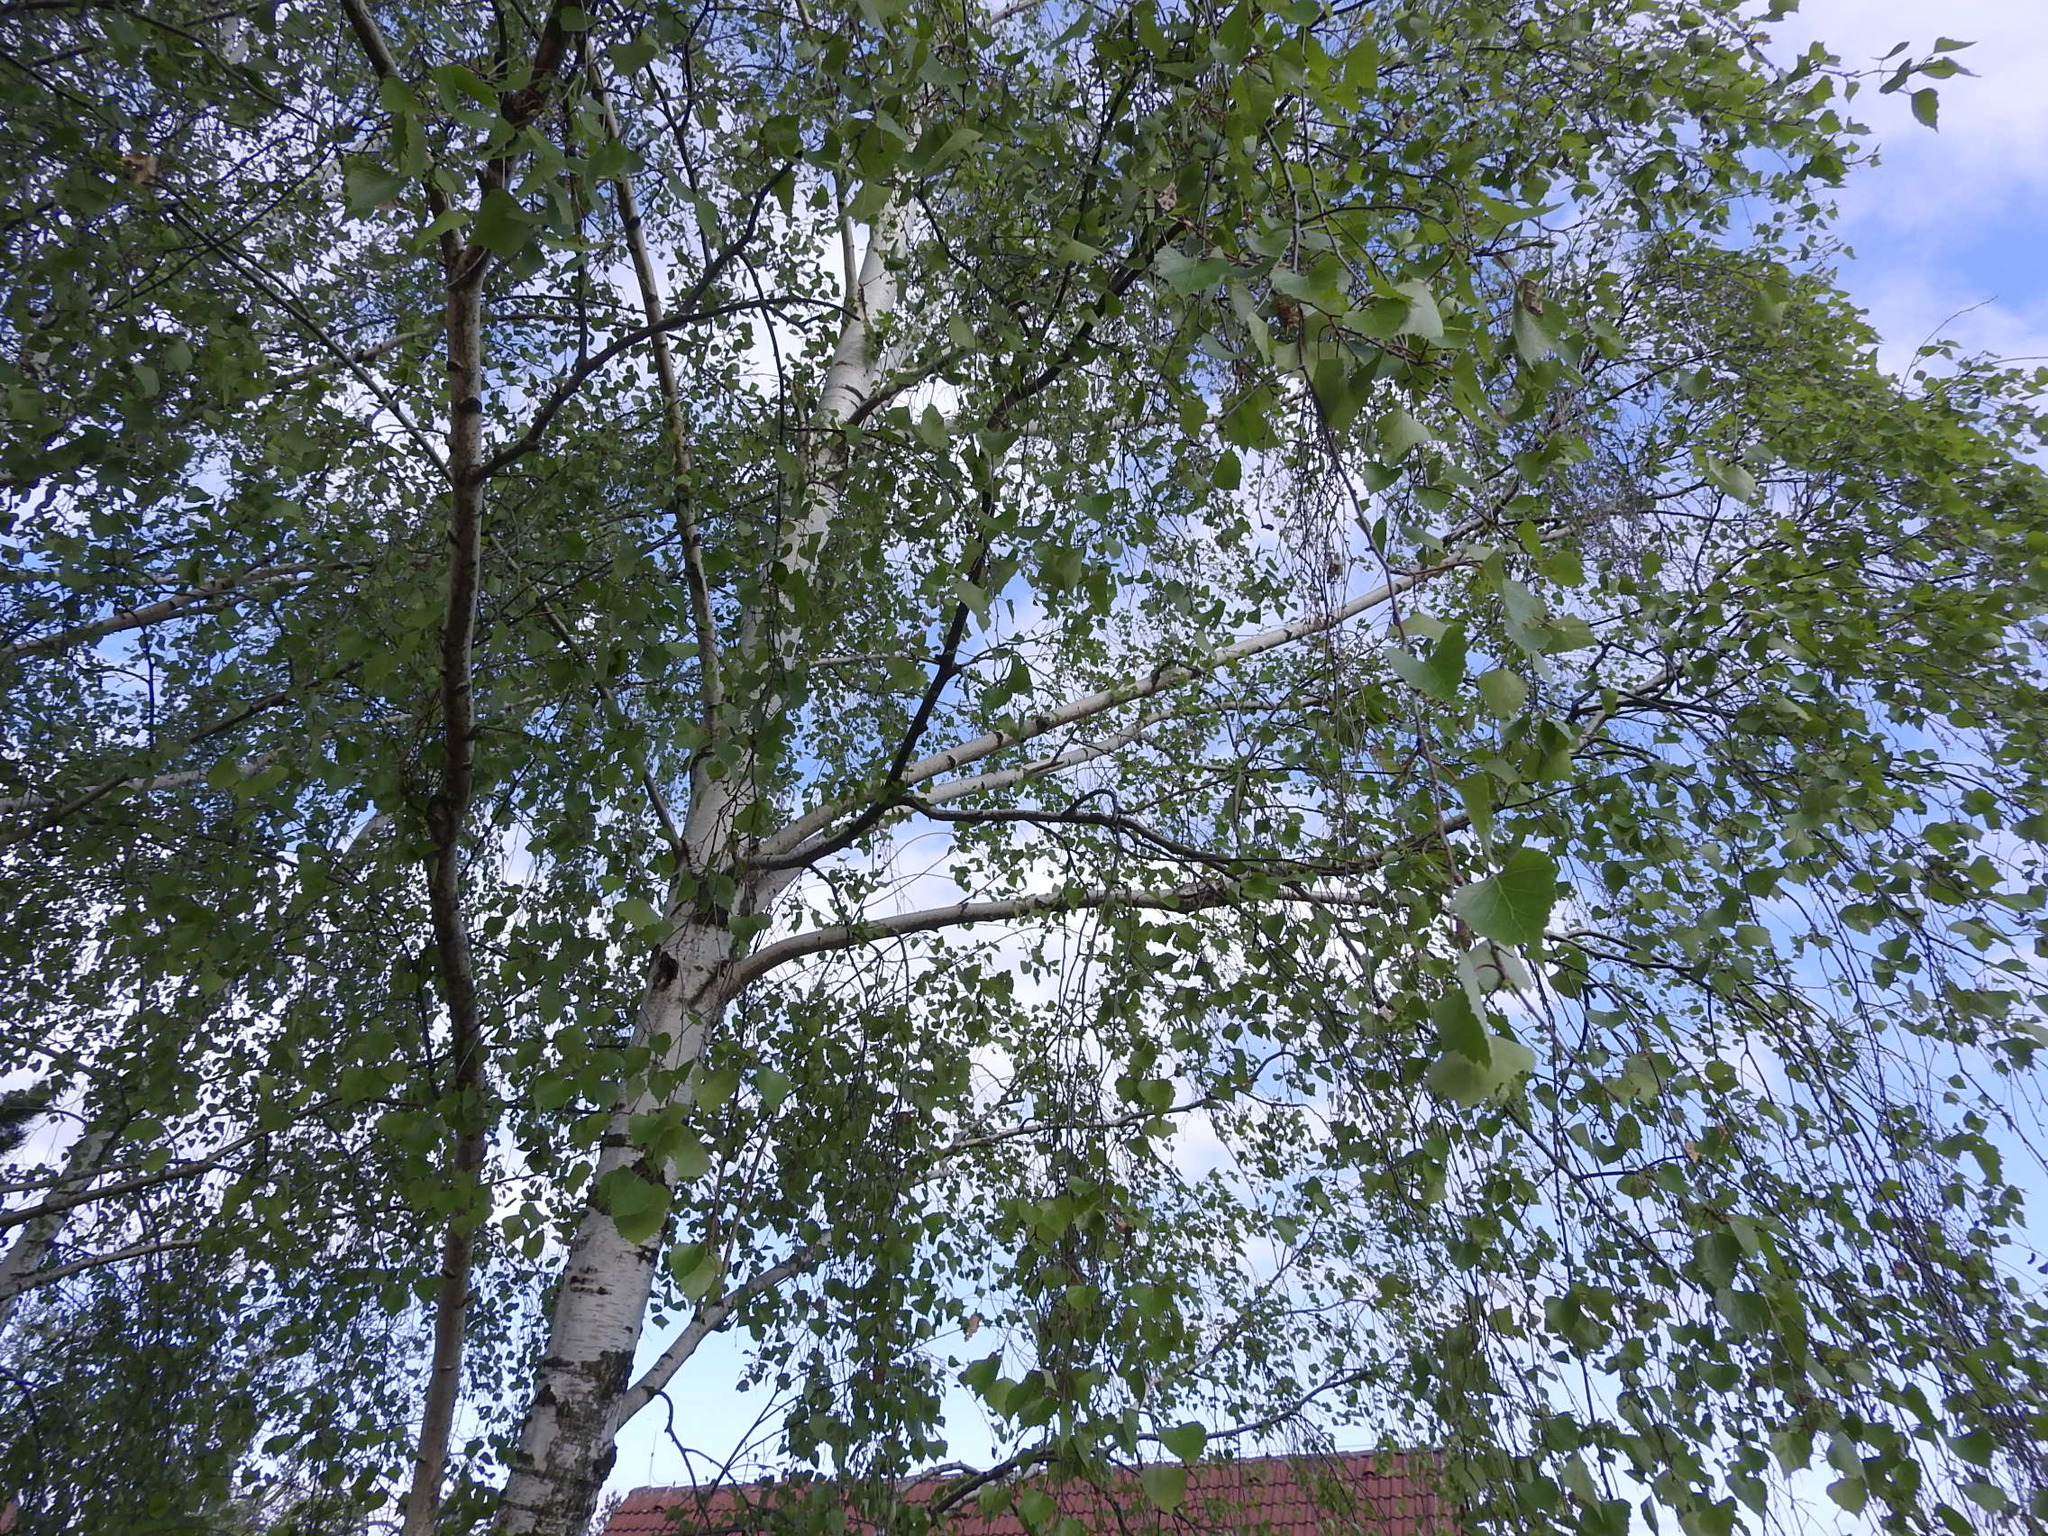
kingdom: Plantae
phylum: Tracheophyta
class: Magnoliopsida
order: Fagales
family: Betulaceae
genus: Betula
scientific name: Betula pendula
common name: Silver birch
